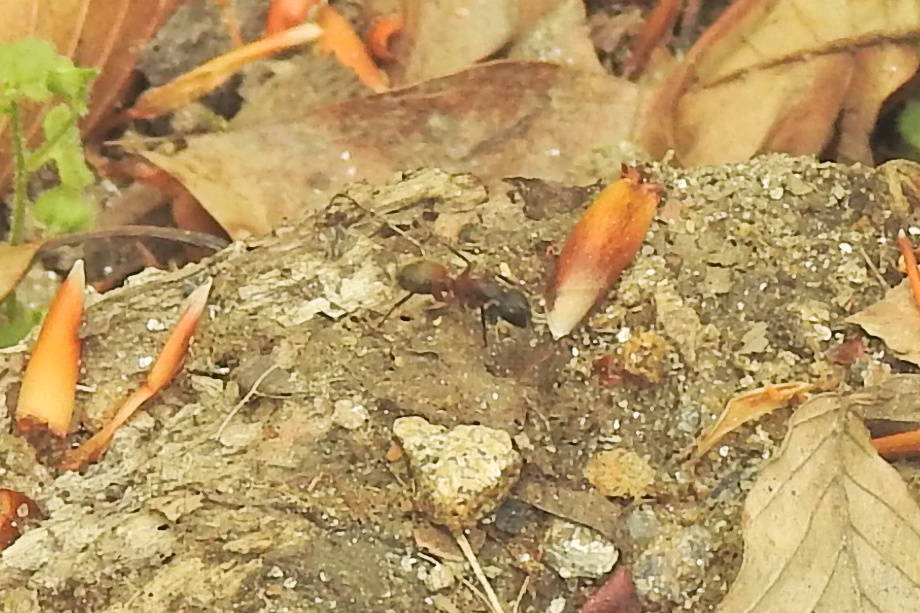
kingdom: Animalia
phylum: Arthropoda
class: Insecta
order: Hymenoptera
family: Formicidae
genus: Camponotus
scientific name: Camponotus chromaiodes
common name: Red carpenter ant
